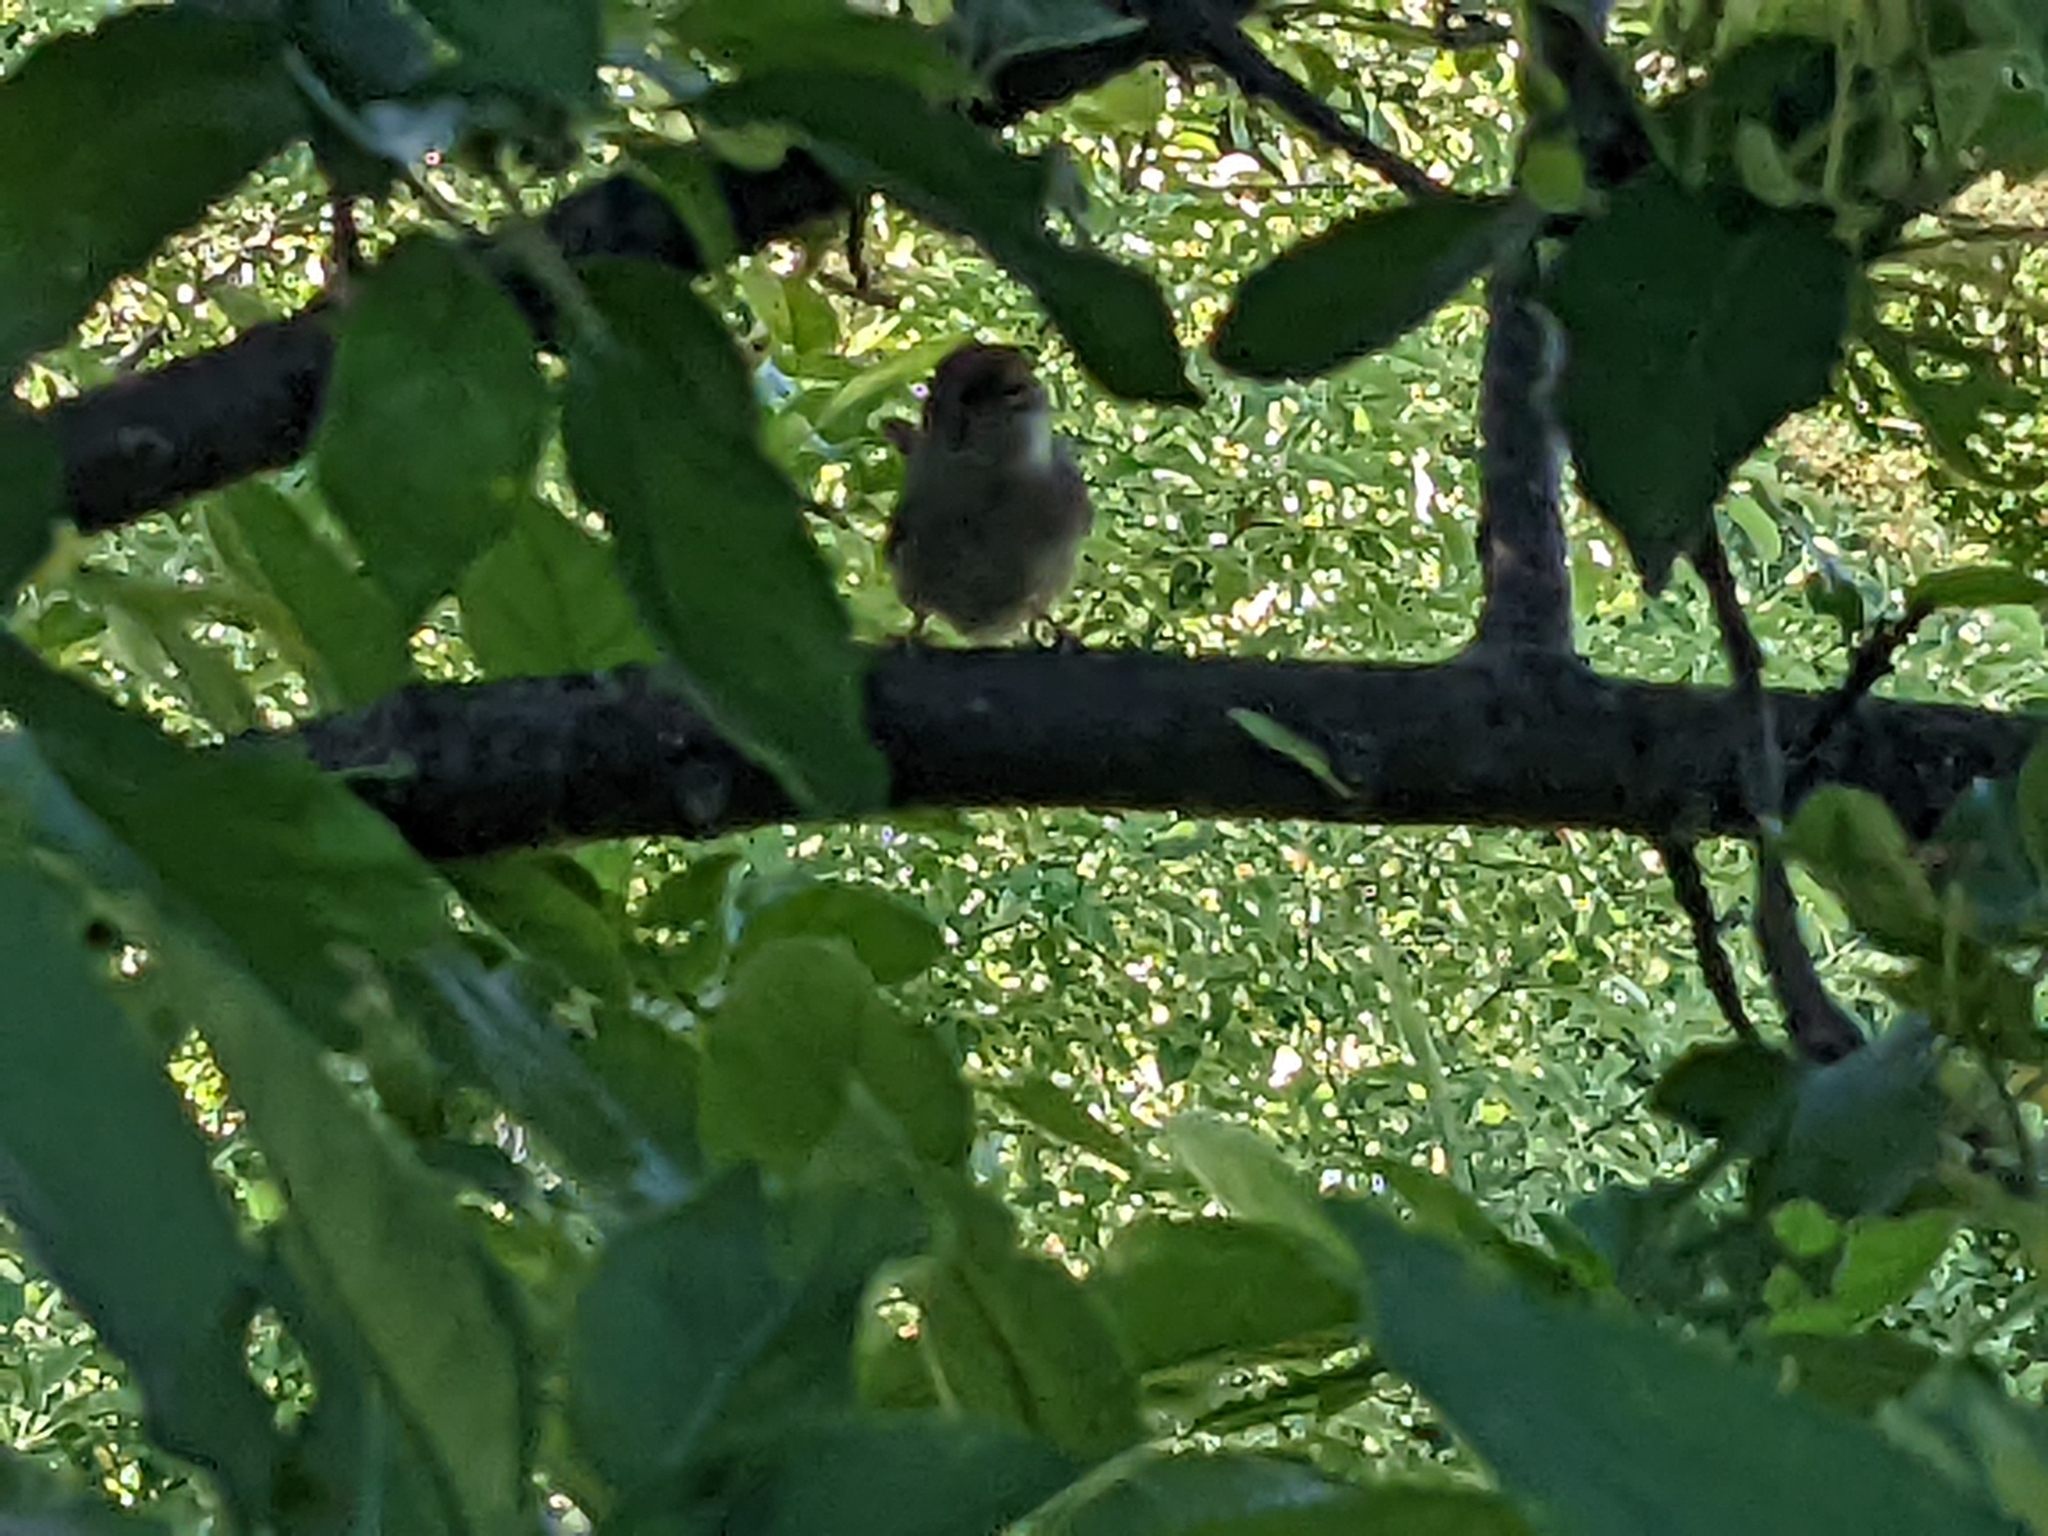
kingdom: Animalia
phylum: Chordata
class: Aves
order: Passeriformes
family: Troglodytidae
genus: Troglodytes
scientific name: Troglodytes aedon
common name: House wren
